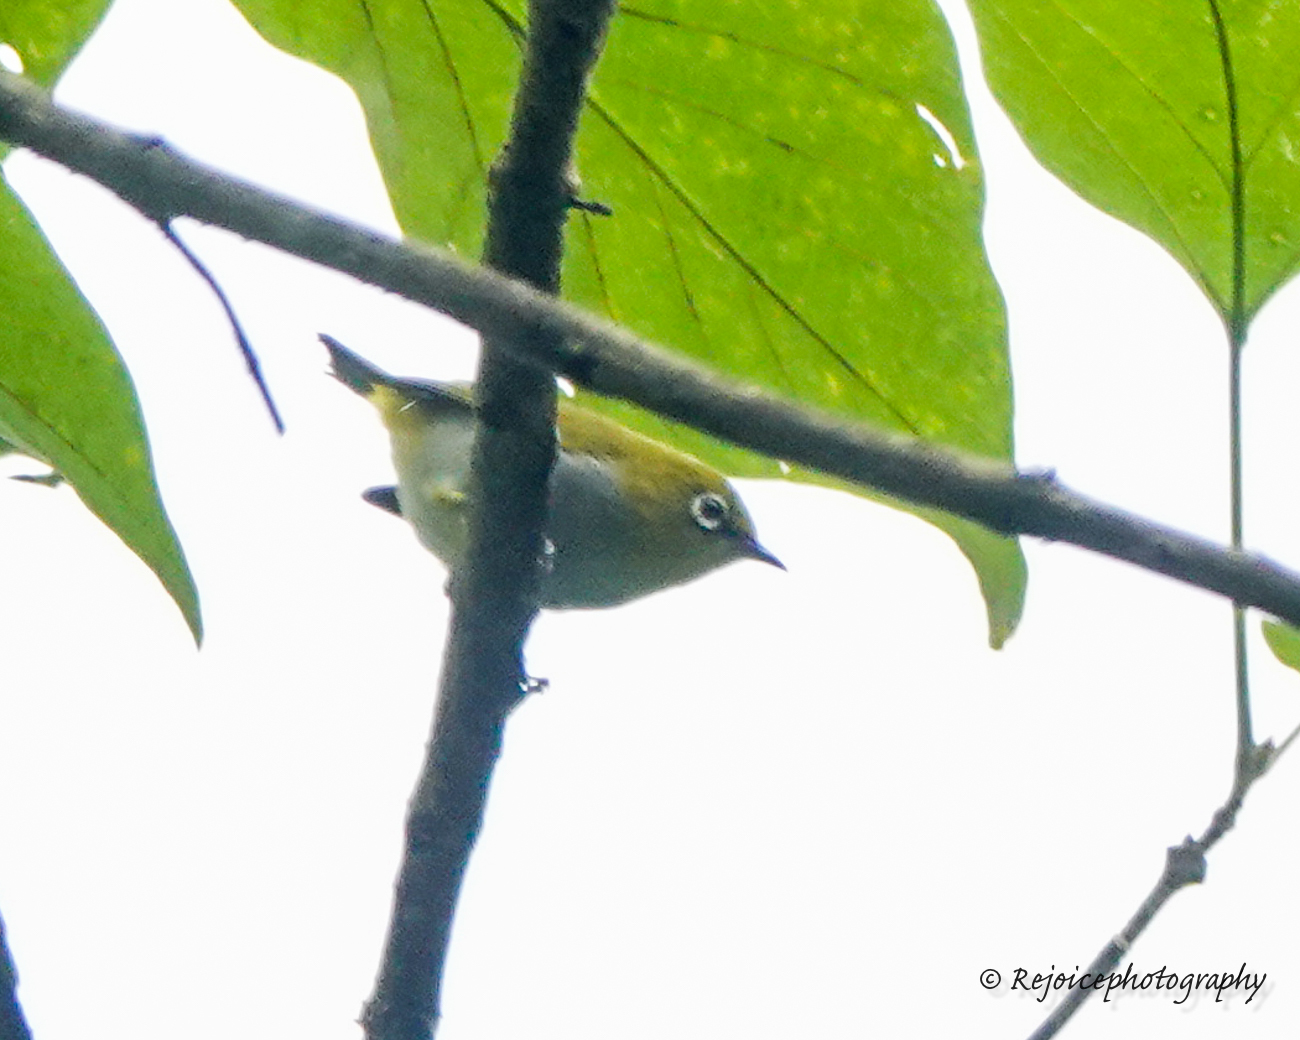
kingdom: Animalia
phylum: Chordata
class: Aves
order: Passeriformes
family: Zosteropidae
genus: Zosterops
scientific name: Zosterops palpebrosus
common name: Oriental white-eye
